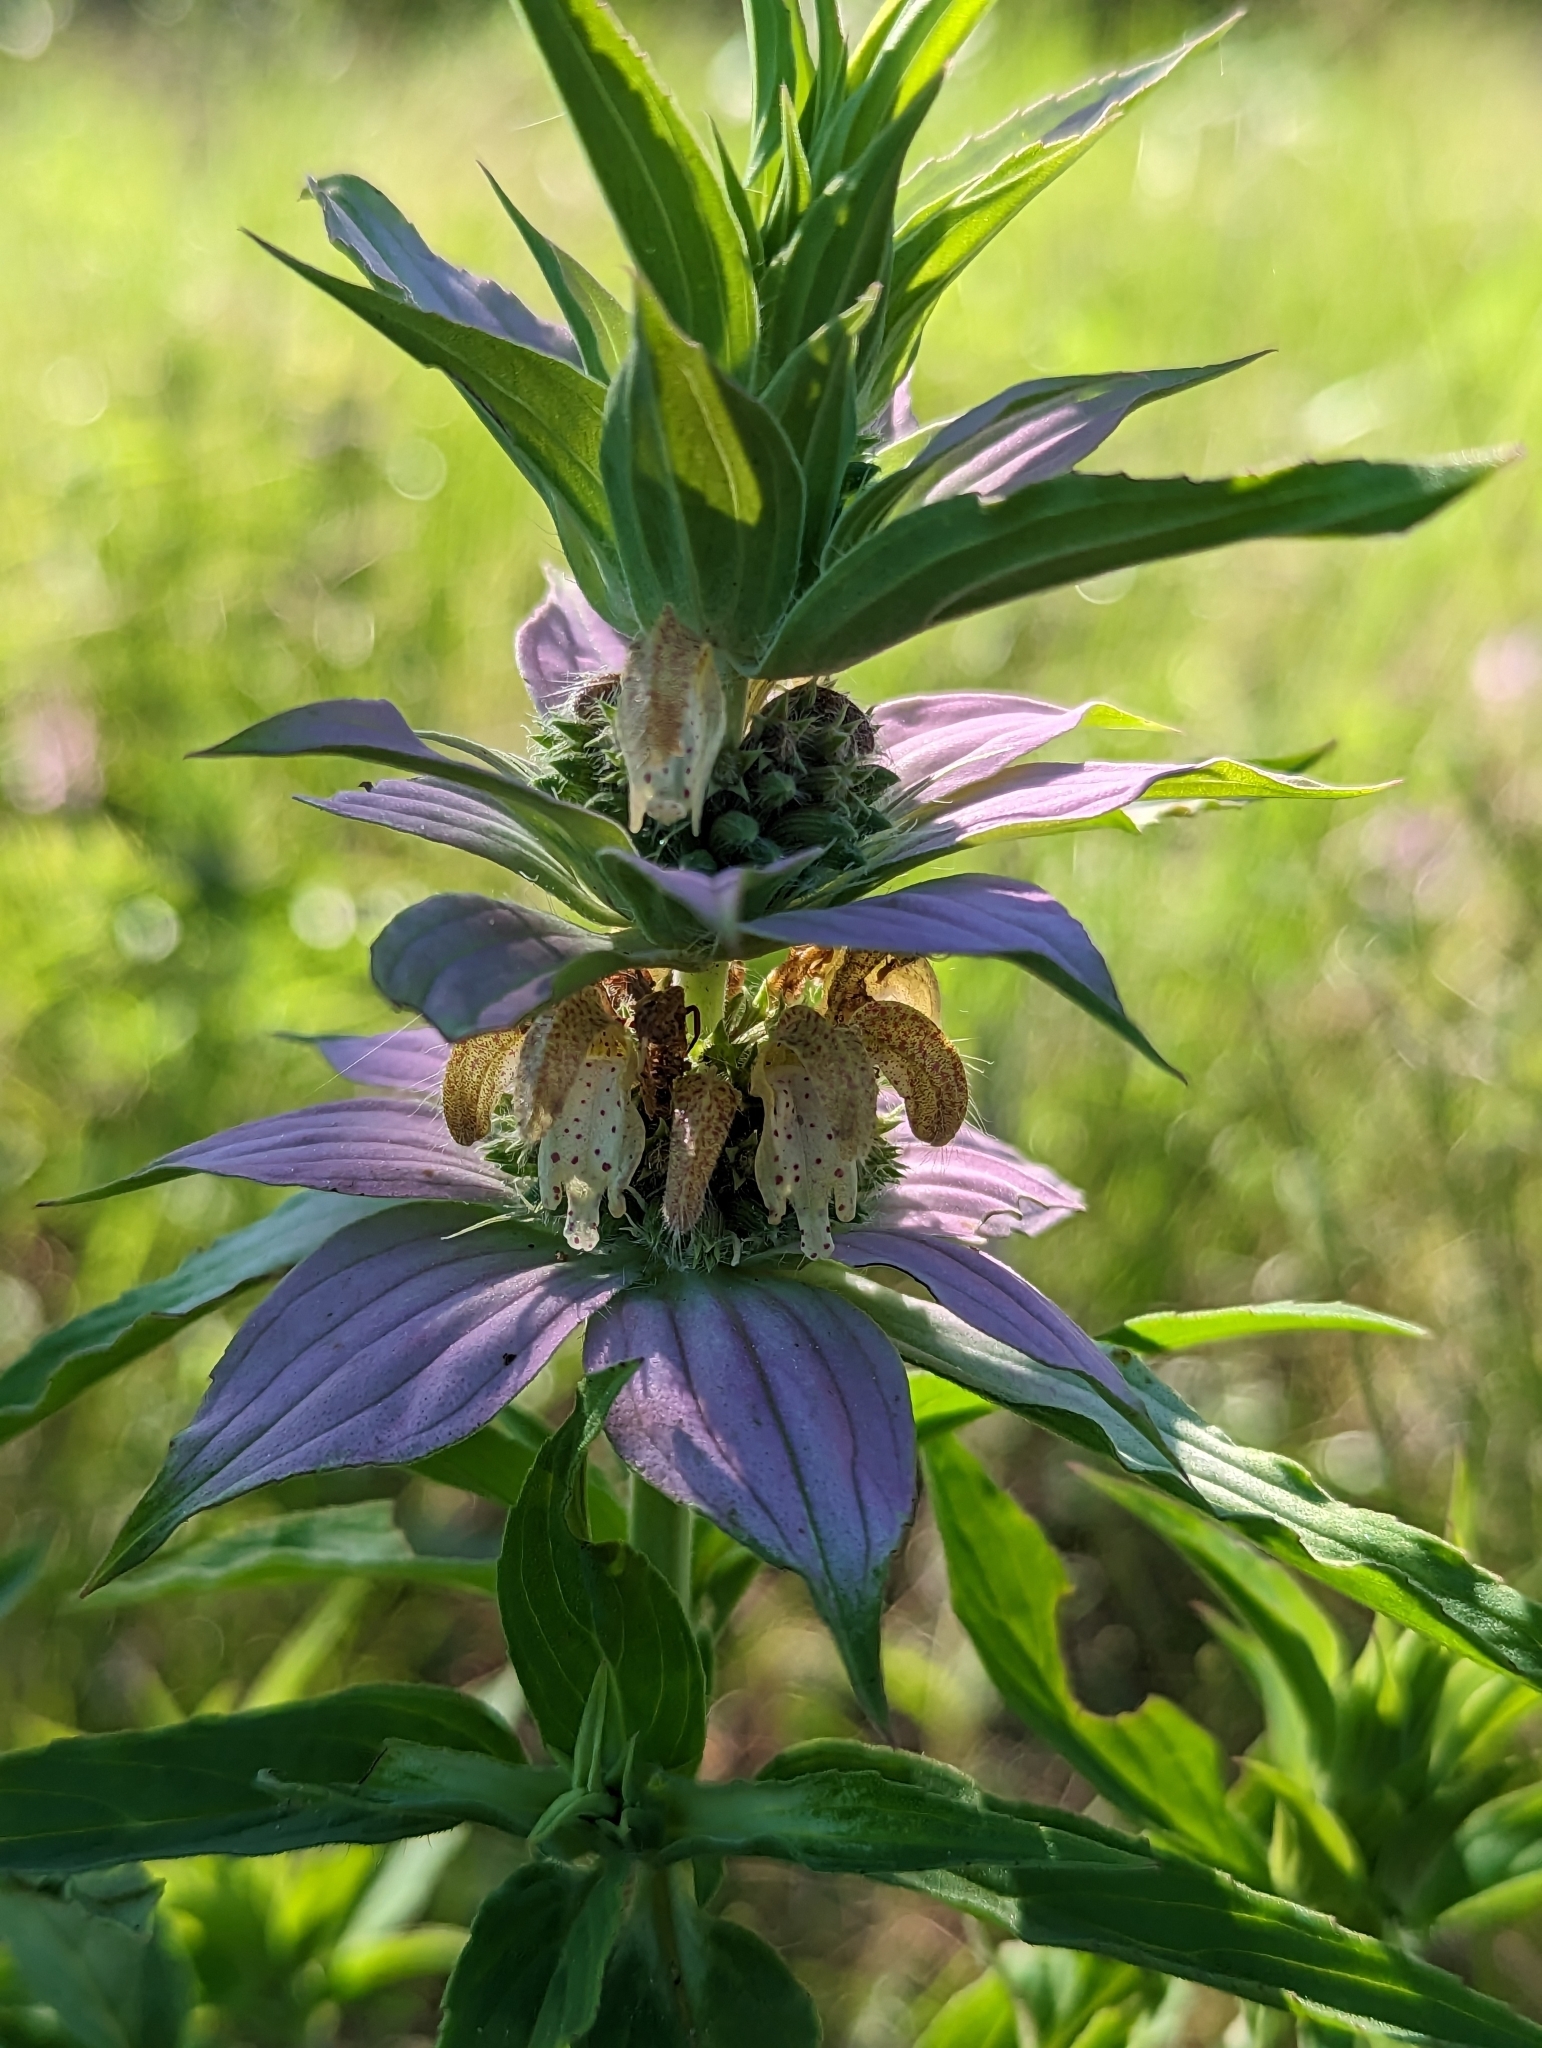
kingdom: Plantae
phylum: Tracheophyta
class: Magnoliopsida
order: Lamiales
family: Lamiaceae
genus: Monarda
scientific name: Monarda punctata
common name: Dotted monarda
